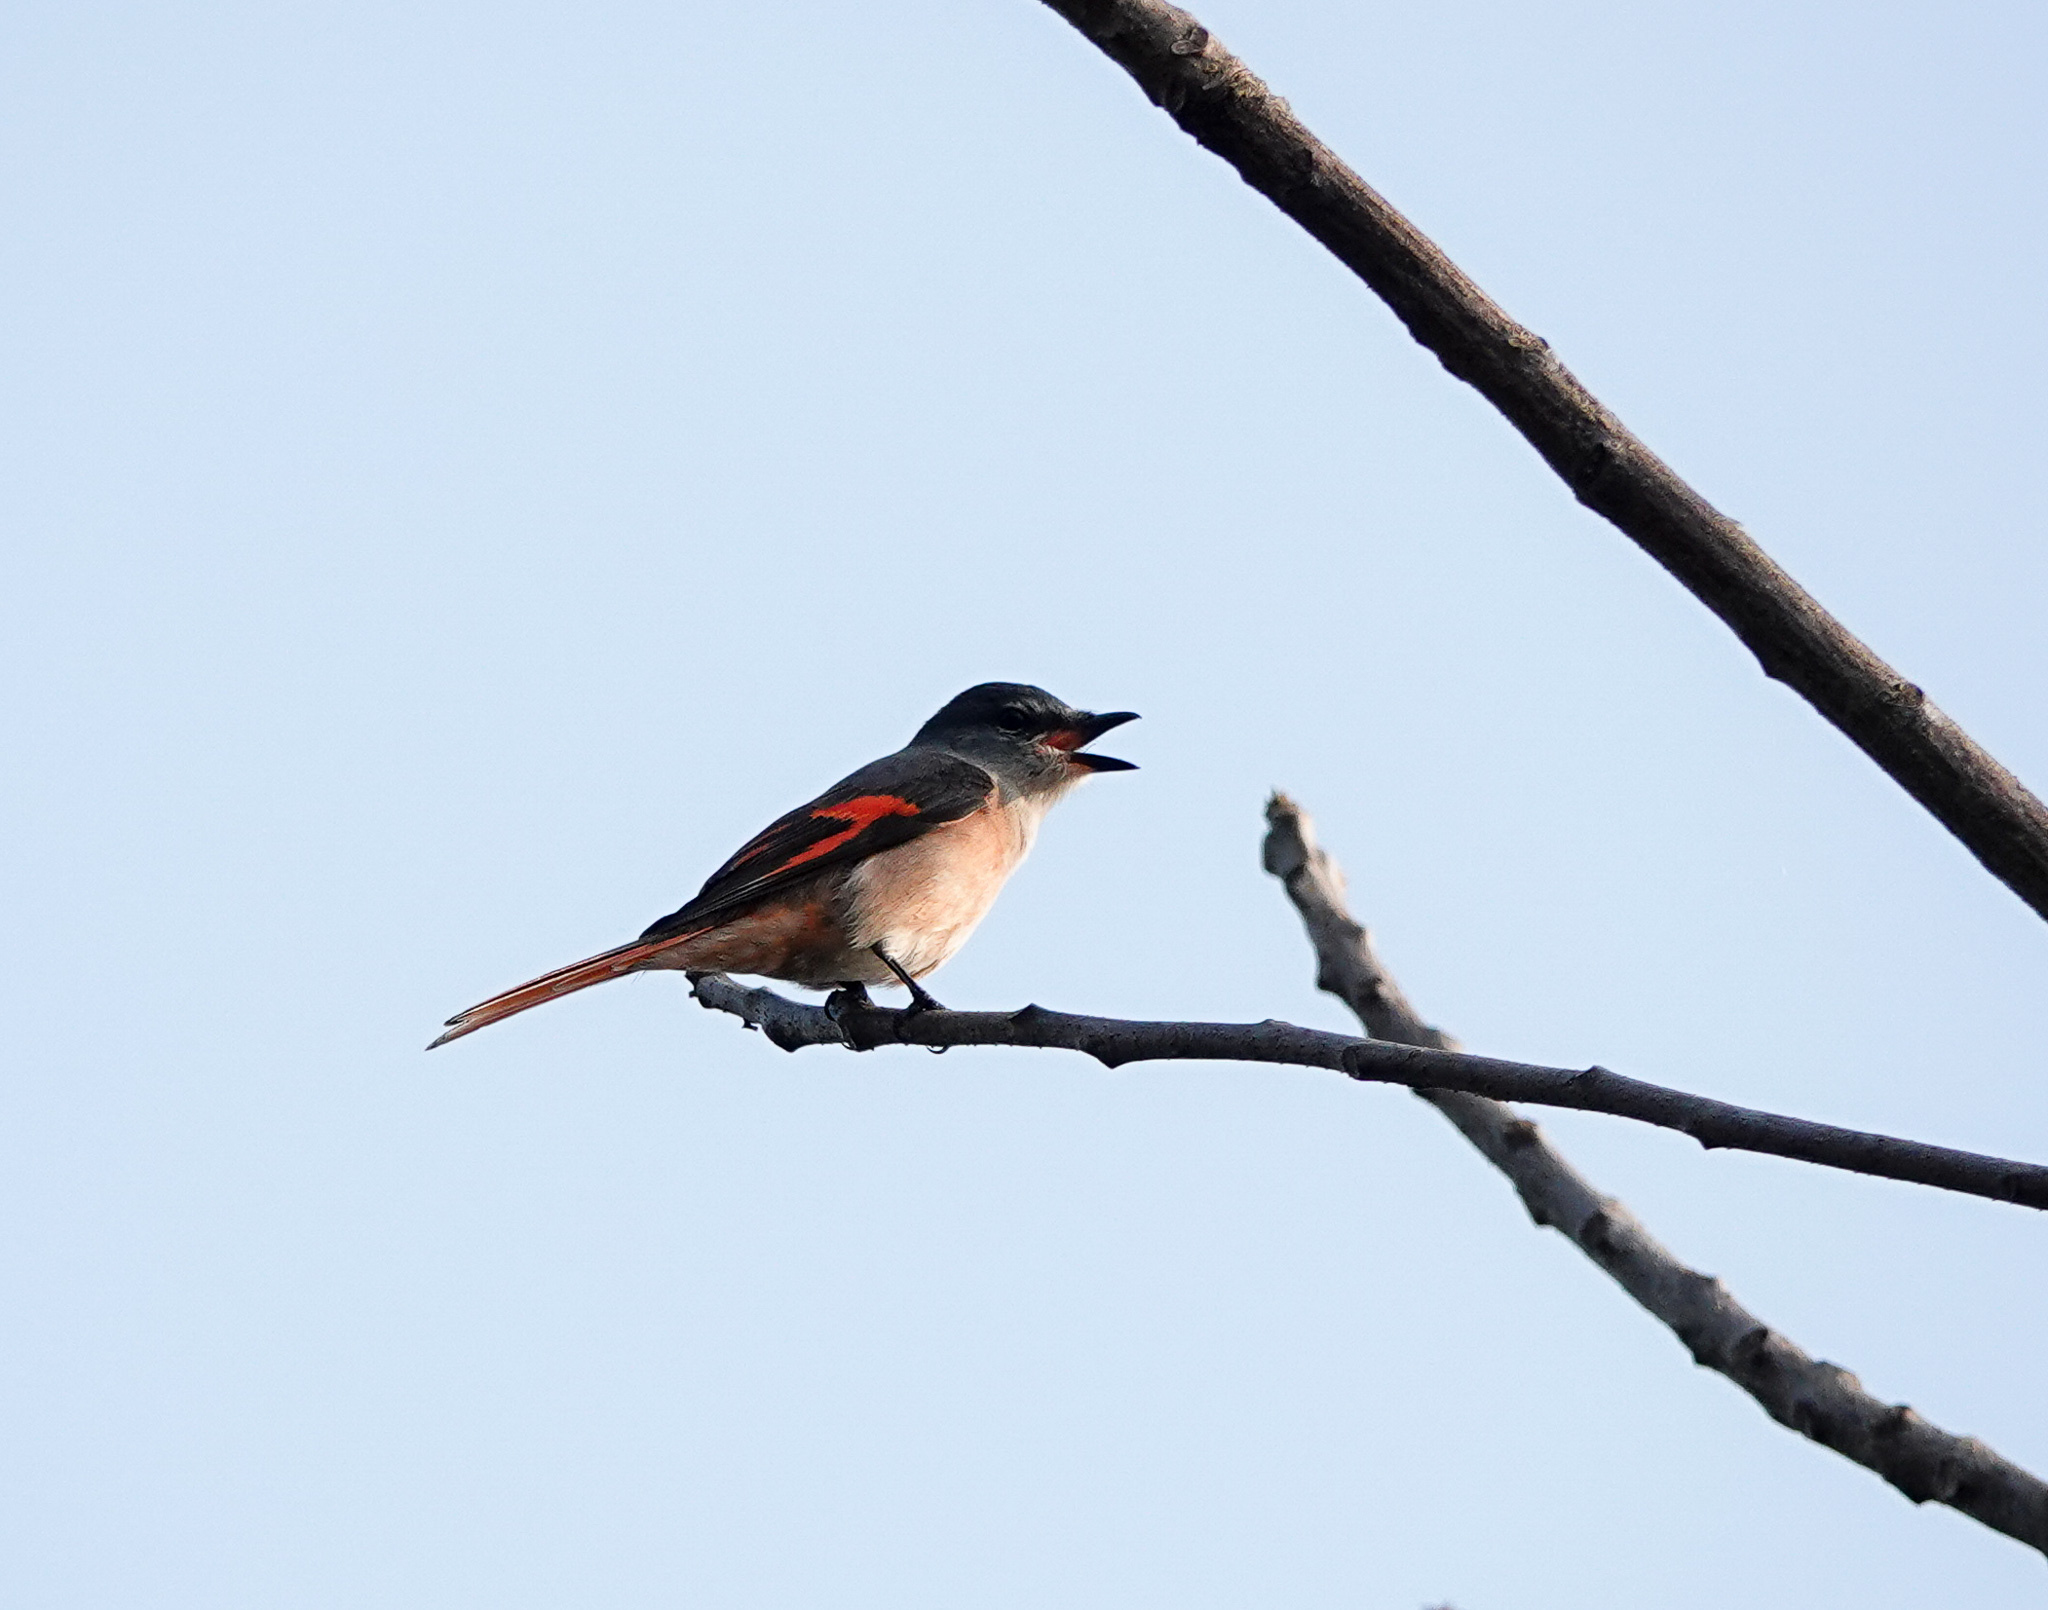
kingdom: Animalia
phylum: Chordata
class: Aves
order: Passeriformes
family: Campephagidae
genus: Pericrocotus
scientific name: Pericrocotus roseus
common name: Rosy minivet
